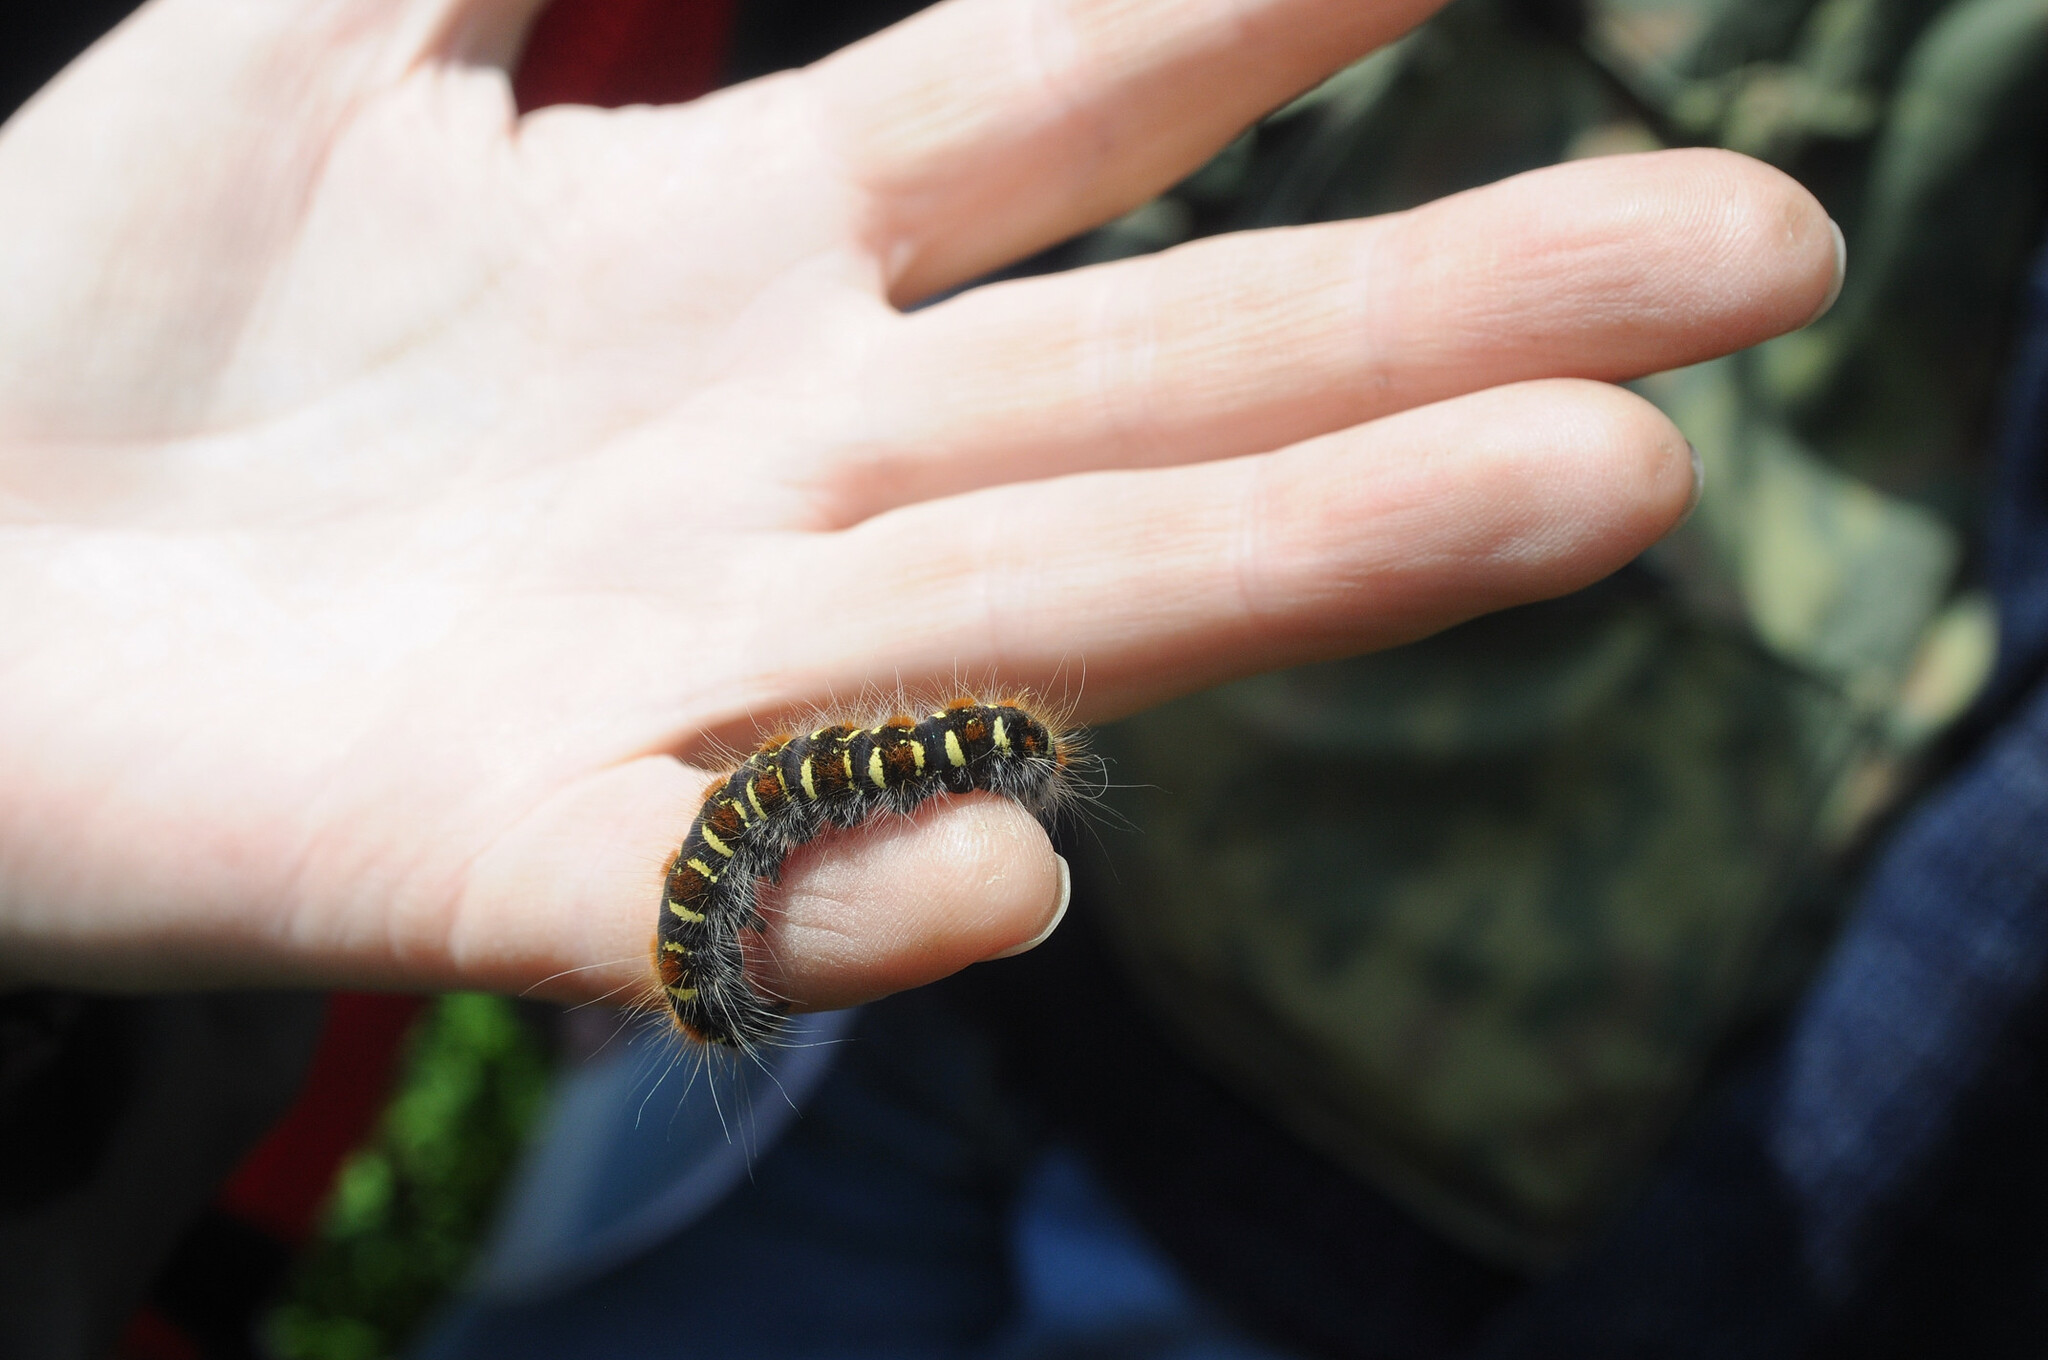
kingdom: Animalia
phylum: Arthropoda
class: Insecta
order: Lepidoptera
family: Lasiocampidae
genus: Eriogaster
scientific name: Eriogaster lanestris
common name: Small eggar
